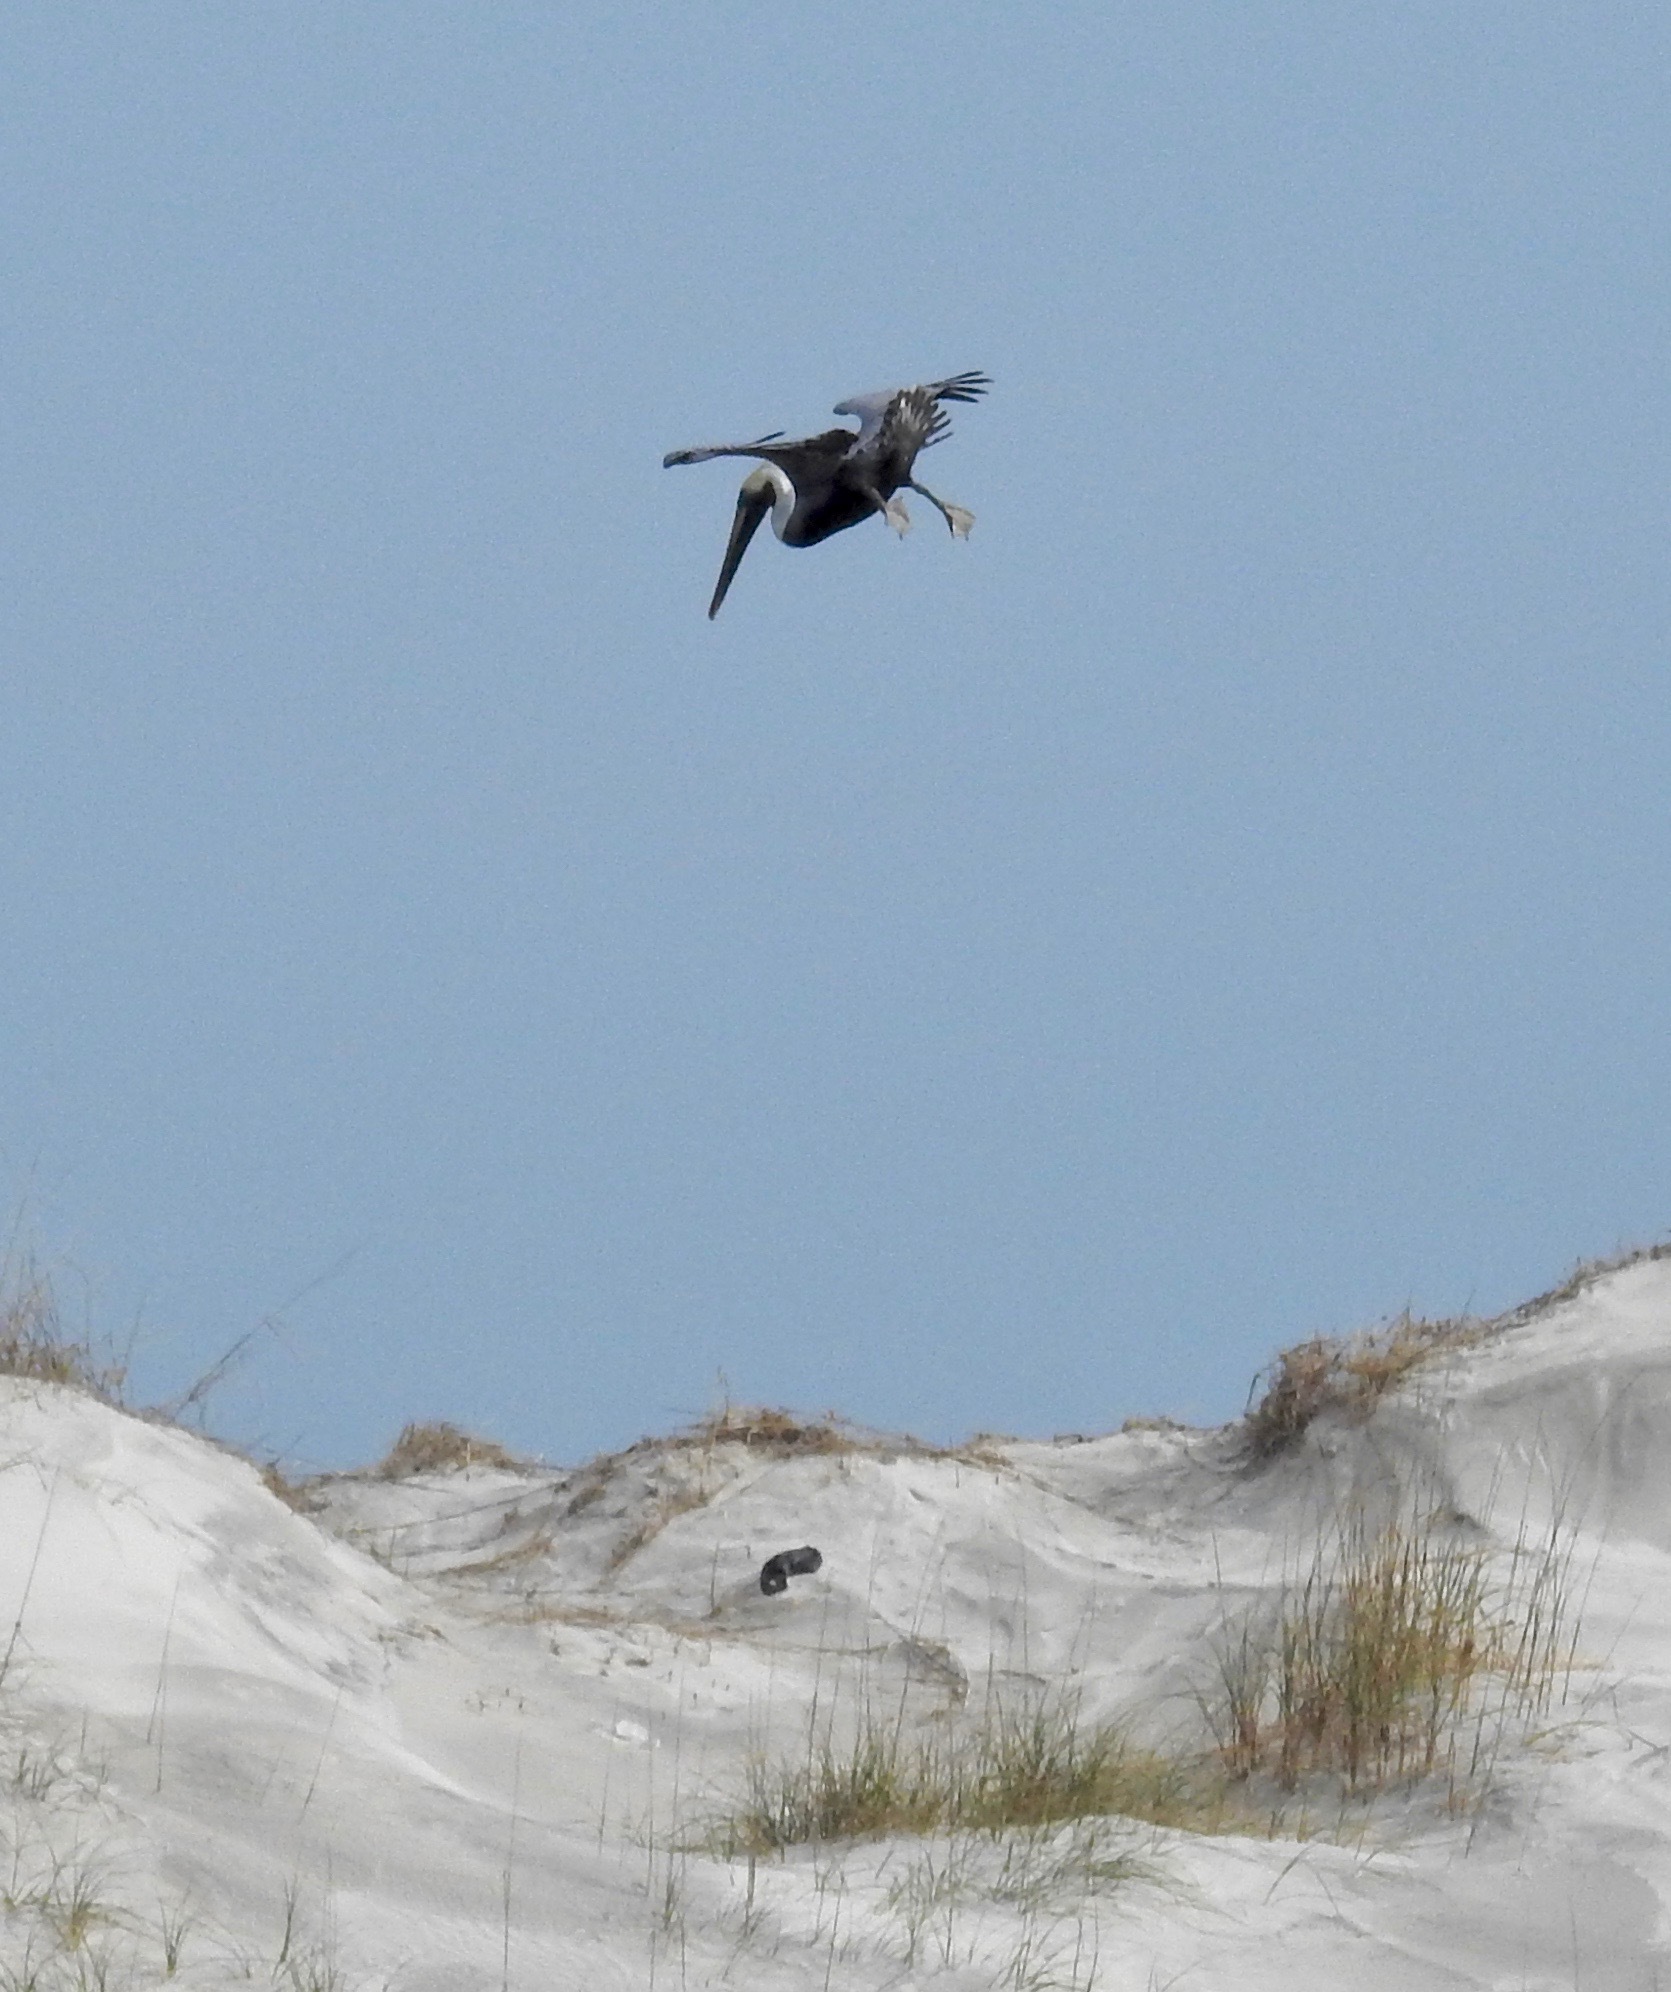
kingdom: Animalia
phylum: Chordata
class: Aves
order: Pelecaniformes
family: Pelecanidae
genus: Pelecanus
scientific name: Pelecanus occidentalis
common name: Brown pelican
